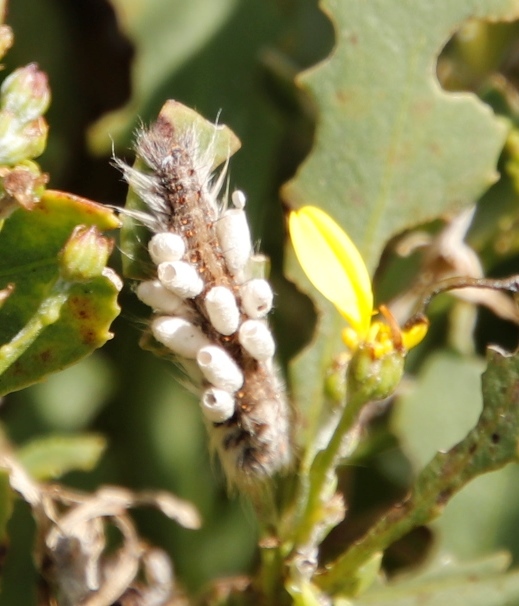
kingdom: Animalia
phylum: Arthropoda
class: Insecta
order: Hymenoptera
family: Braconidae
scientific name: Braconidae
